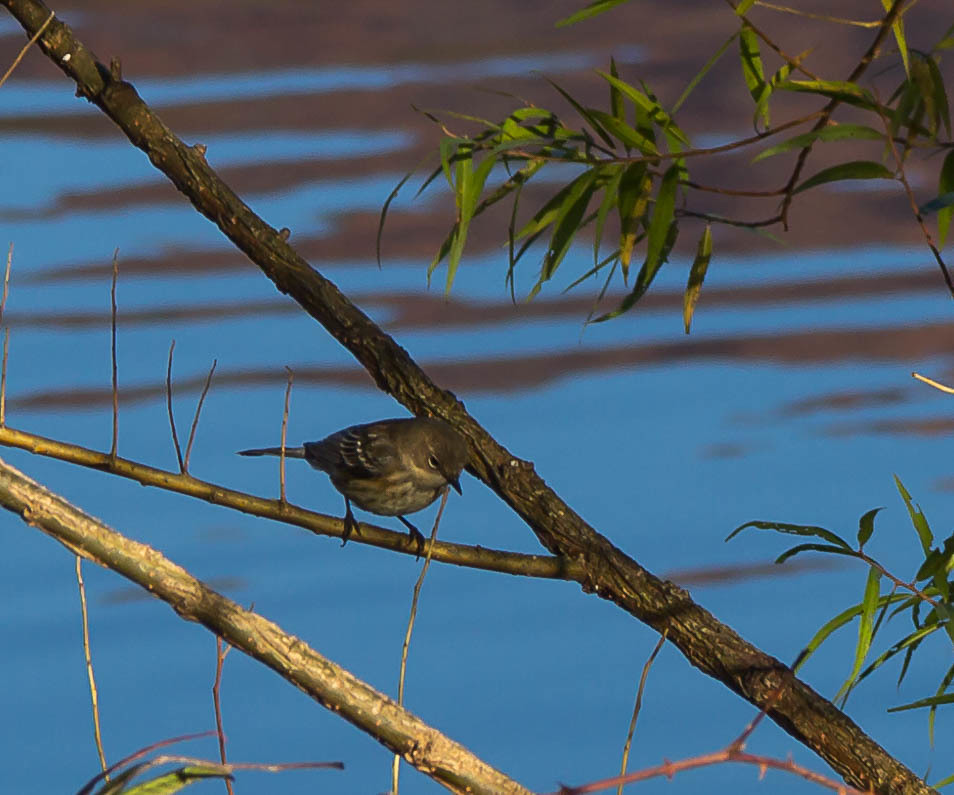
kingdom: Animalia
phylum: Chordata
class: Aves
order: Passeriformes
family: Parulidae
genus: Setophaga
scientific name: Setophaga coronata
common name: Myrtle warbler
